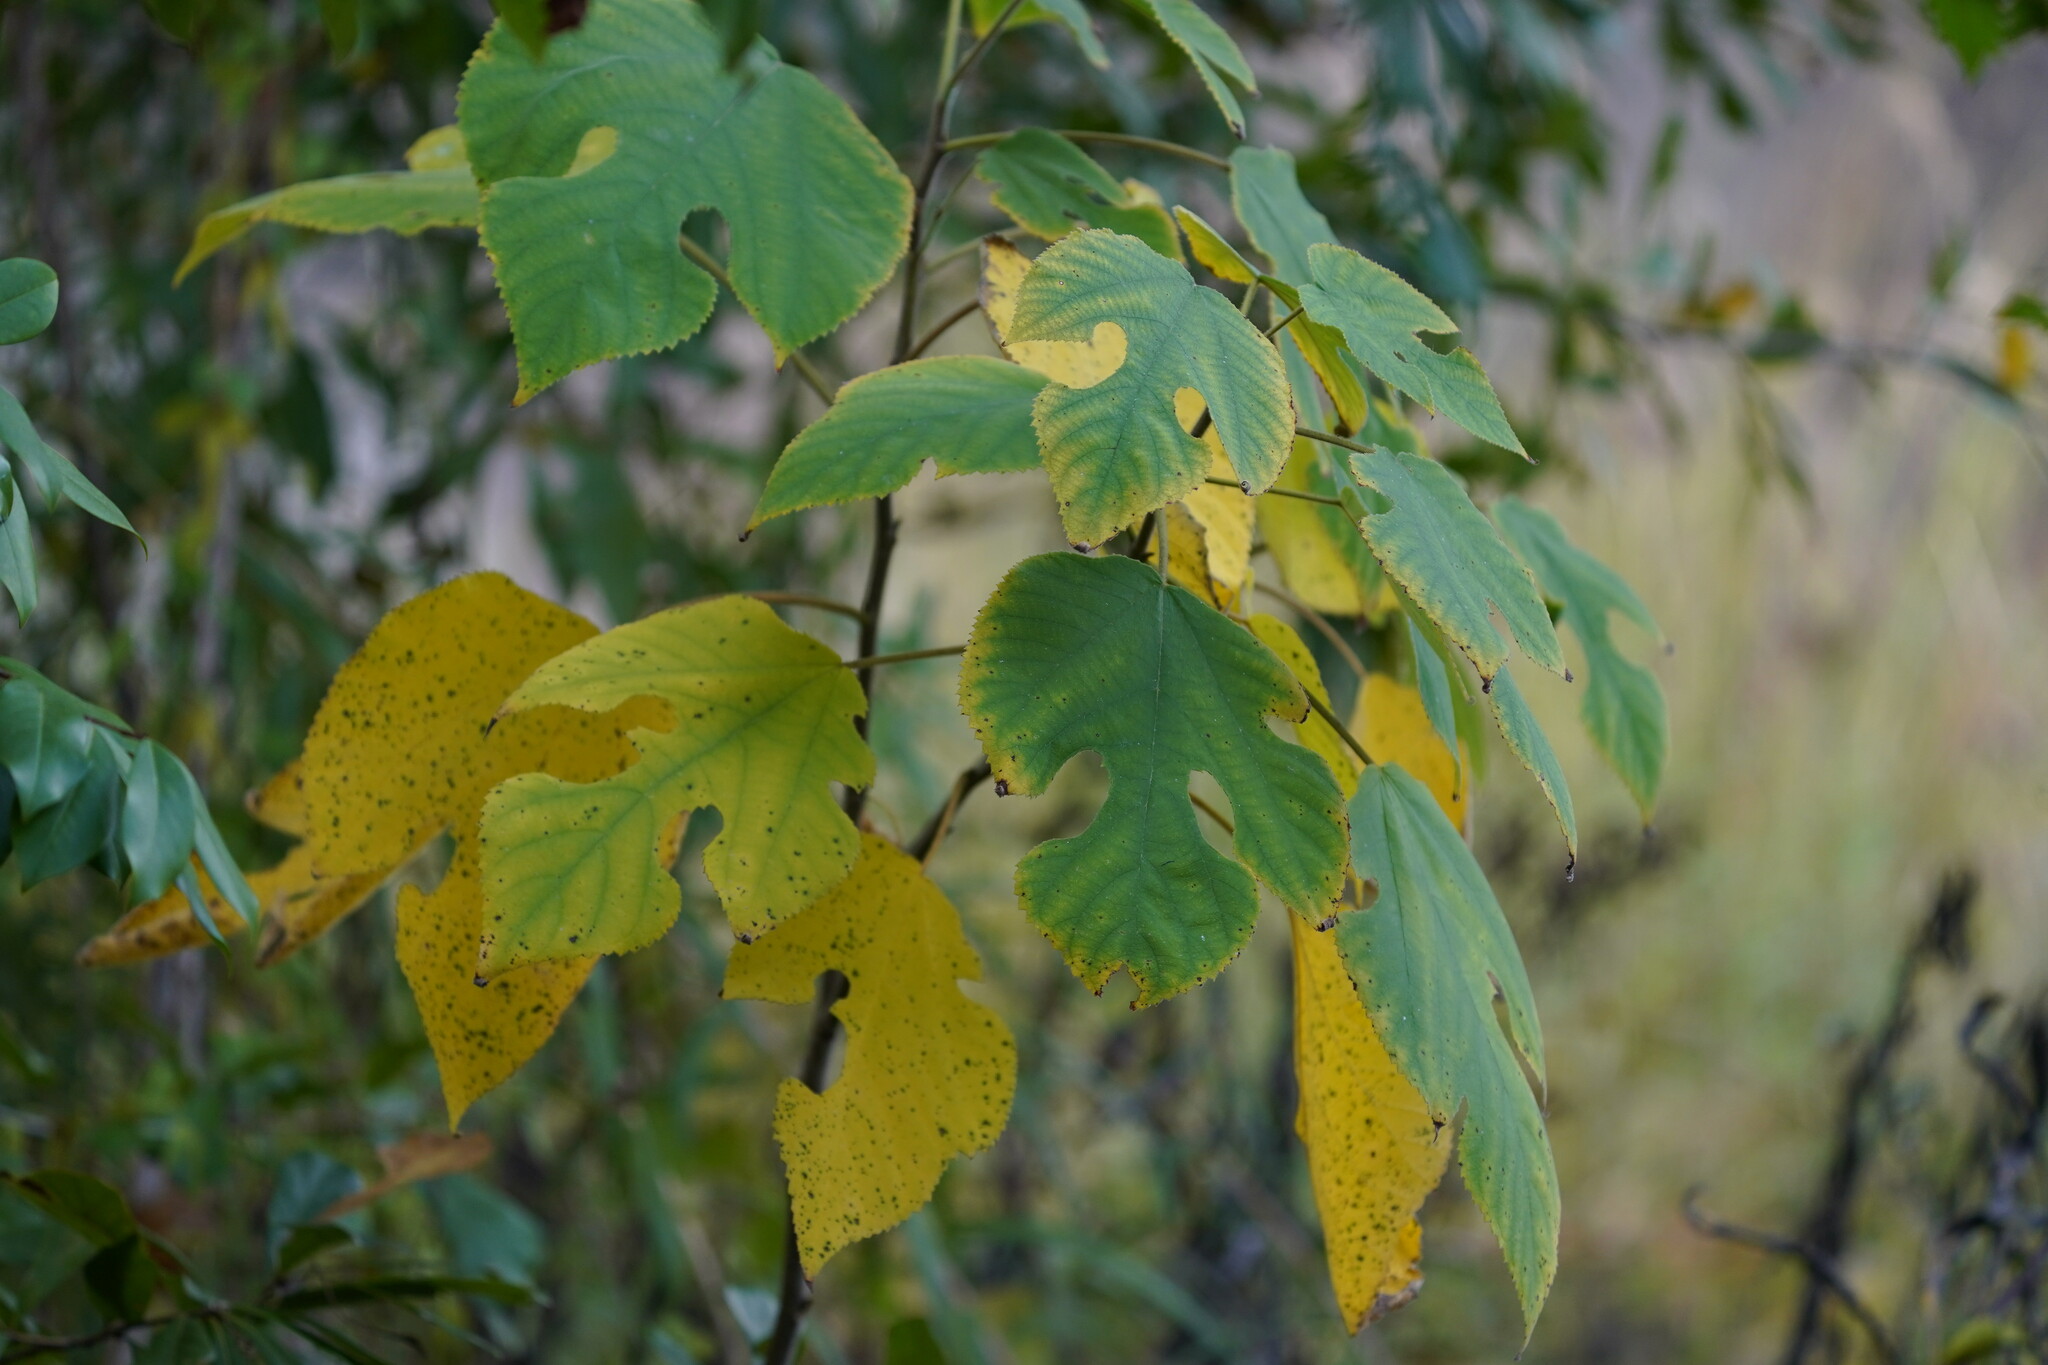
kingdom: Plantae
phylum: Tracheophyta
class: Magnoliopsida
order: Rosales
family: Moraceae
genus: Broussonetia
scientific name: Broussonetia papyrifera
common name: Paper mulberry
